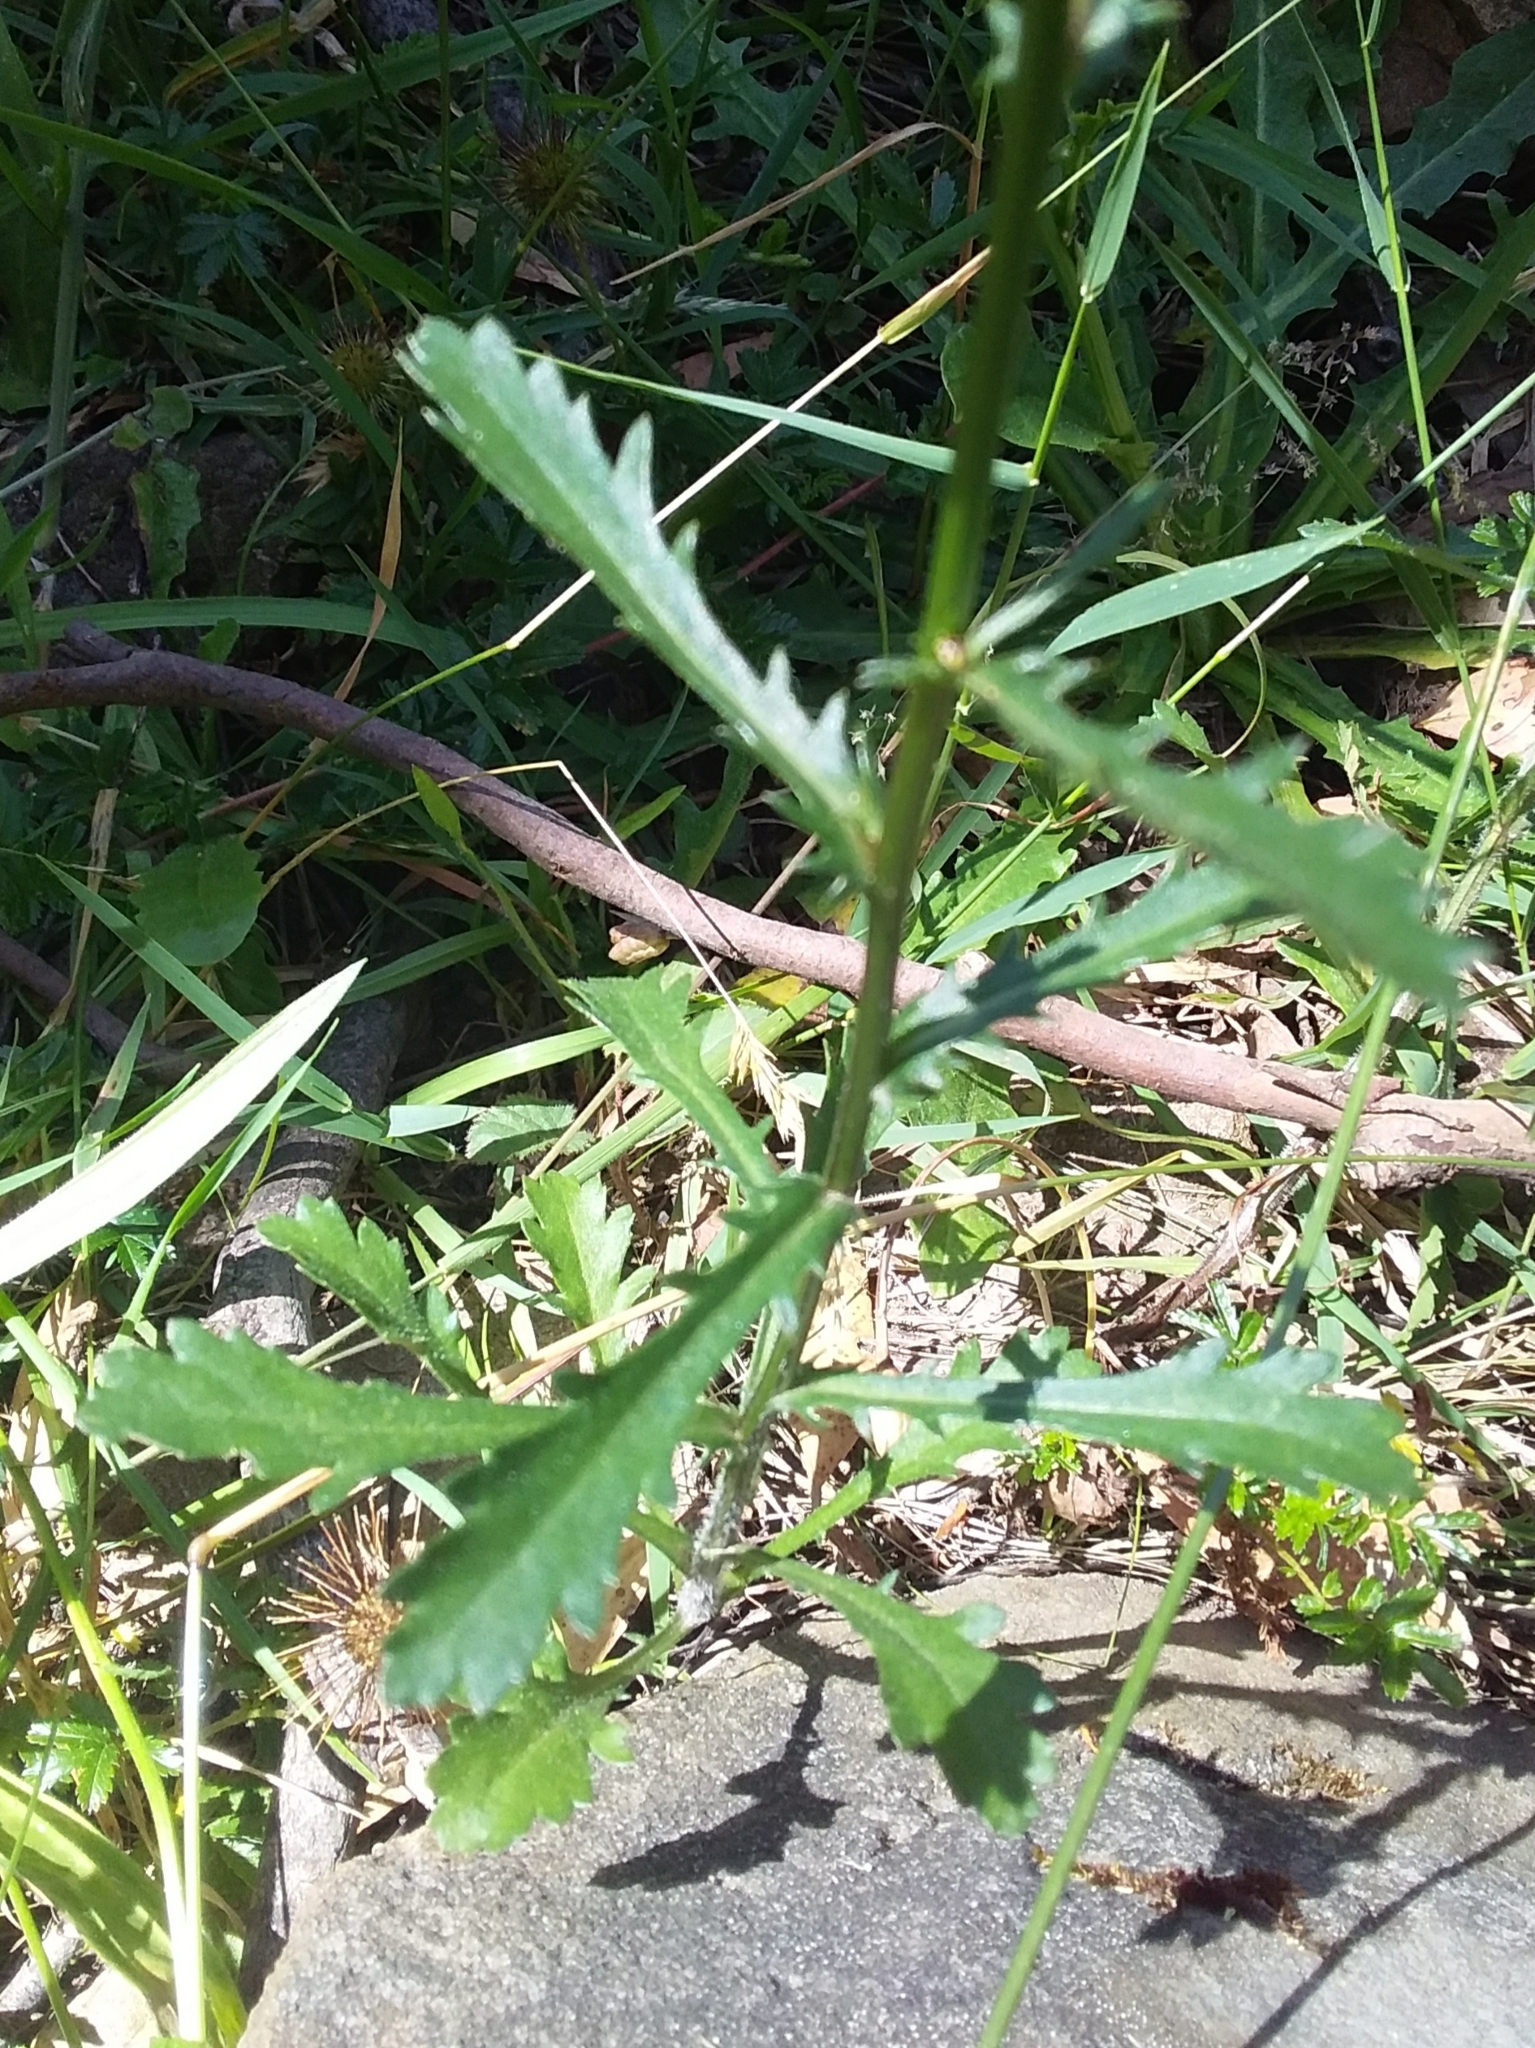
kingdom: Plantae
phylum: Tracheophyta
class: Magnoliopsida
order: Asterales
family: Asteraceae
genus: Leucanthemum
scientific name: Leucanthemum vulgare
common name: Oxeye daisy
